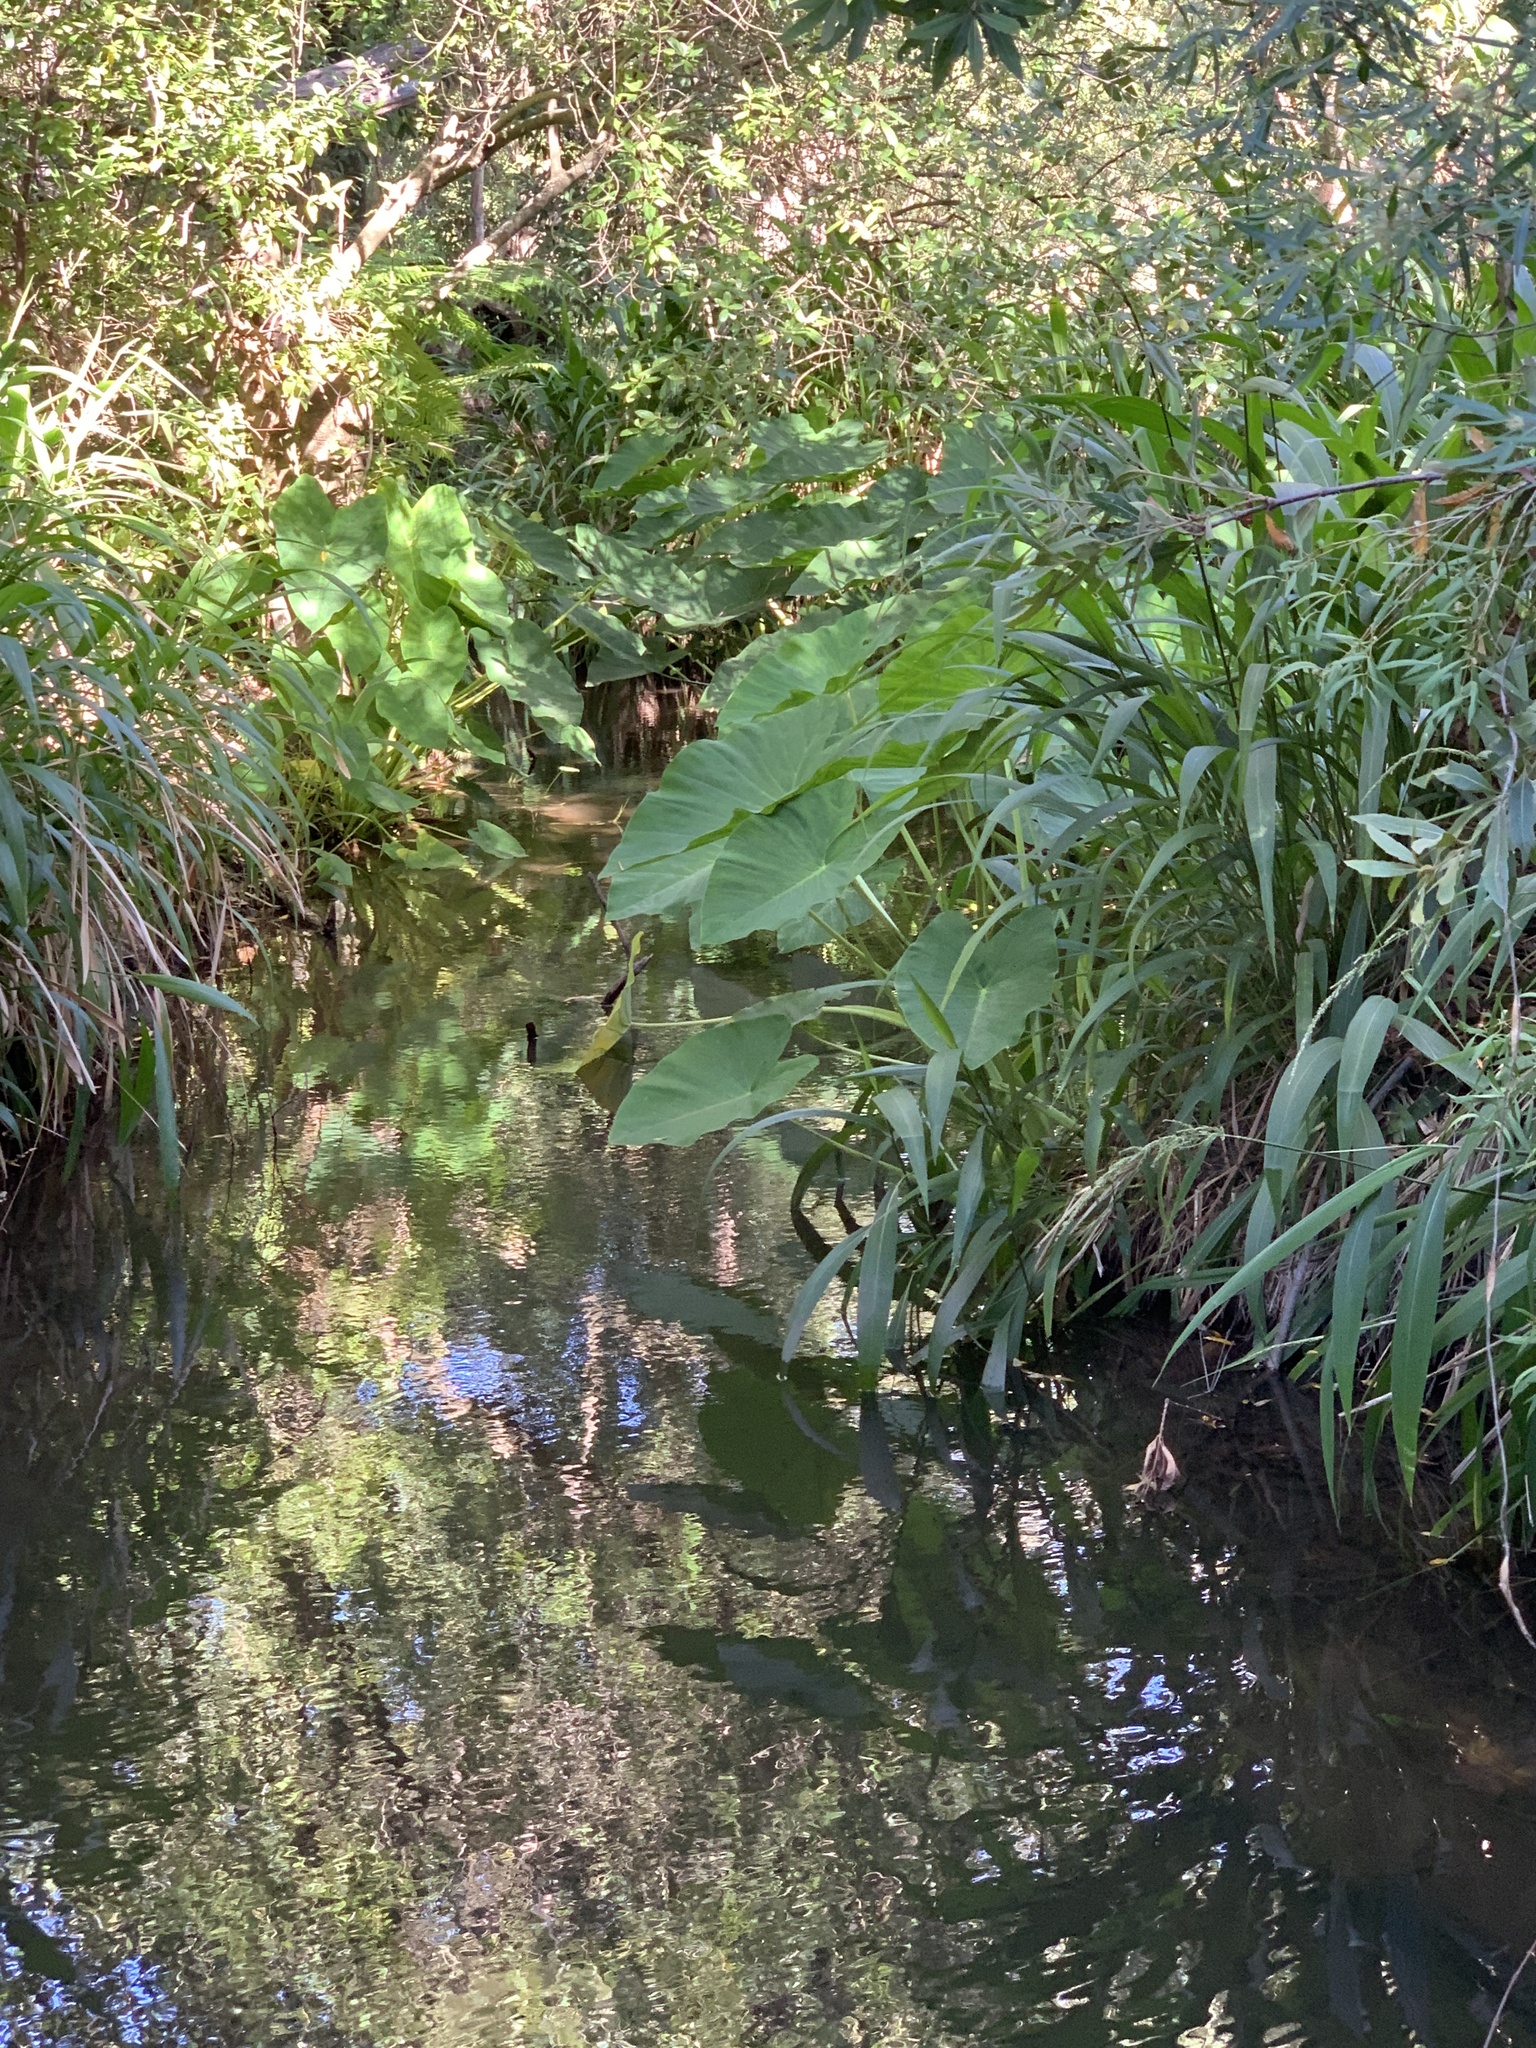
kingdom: Plantae
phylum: Tracheophyta
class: Liliopsida
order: Alismatales
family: Araceae
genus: Colocasia
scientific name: Colocasia esculenta
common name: Taro
